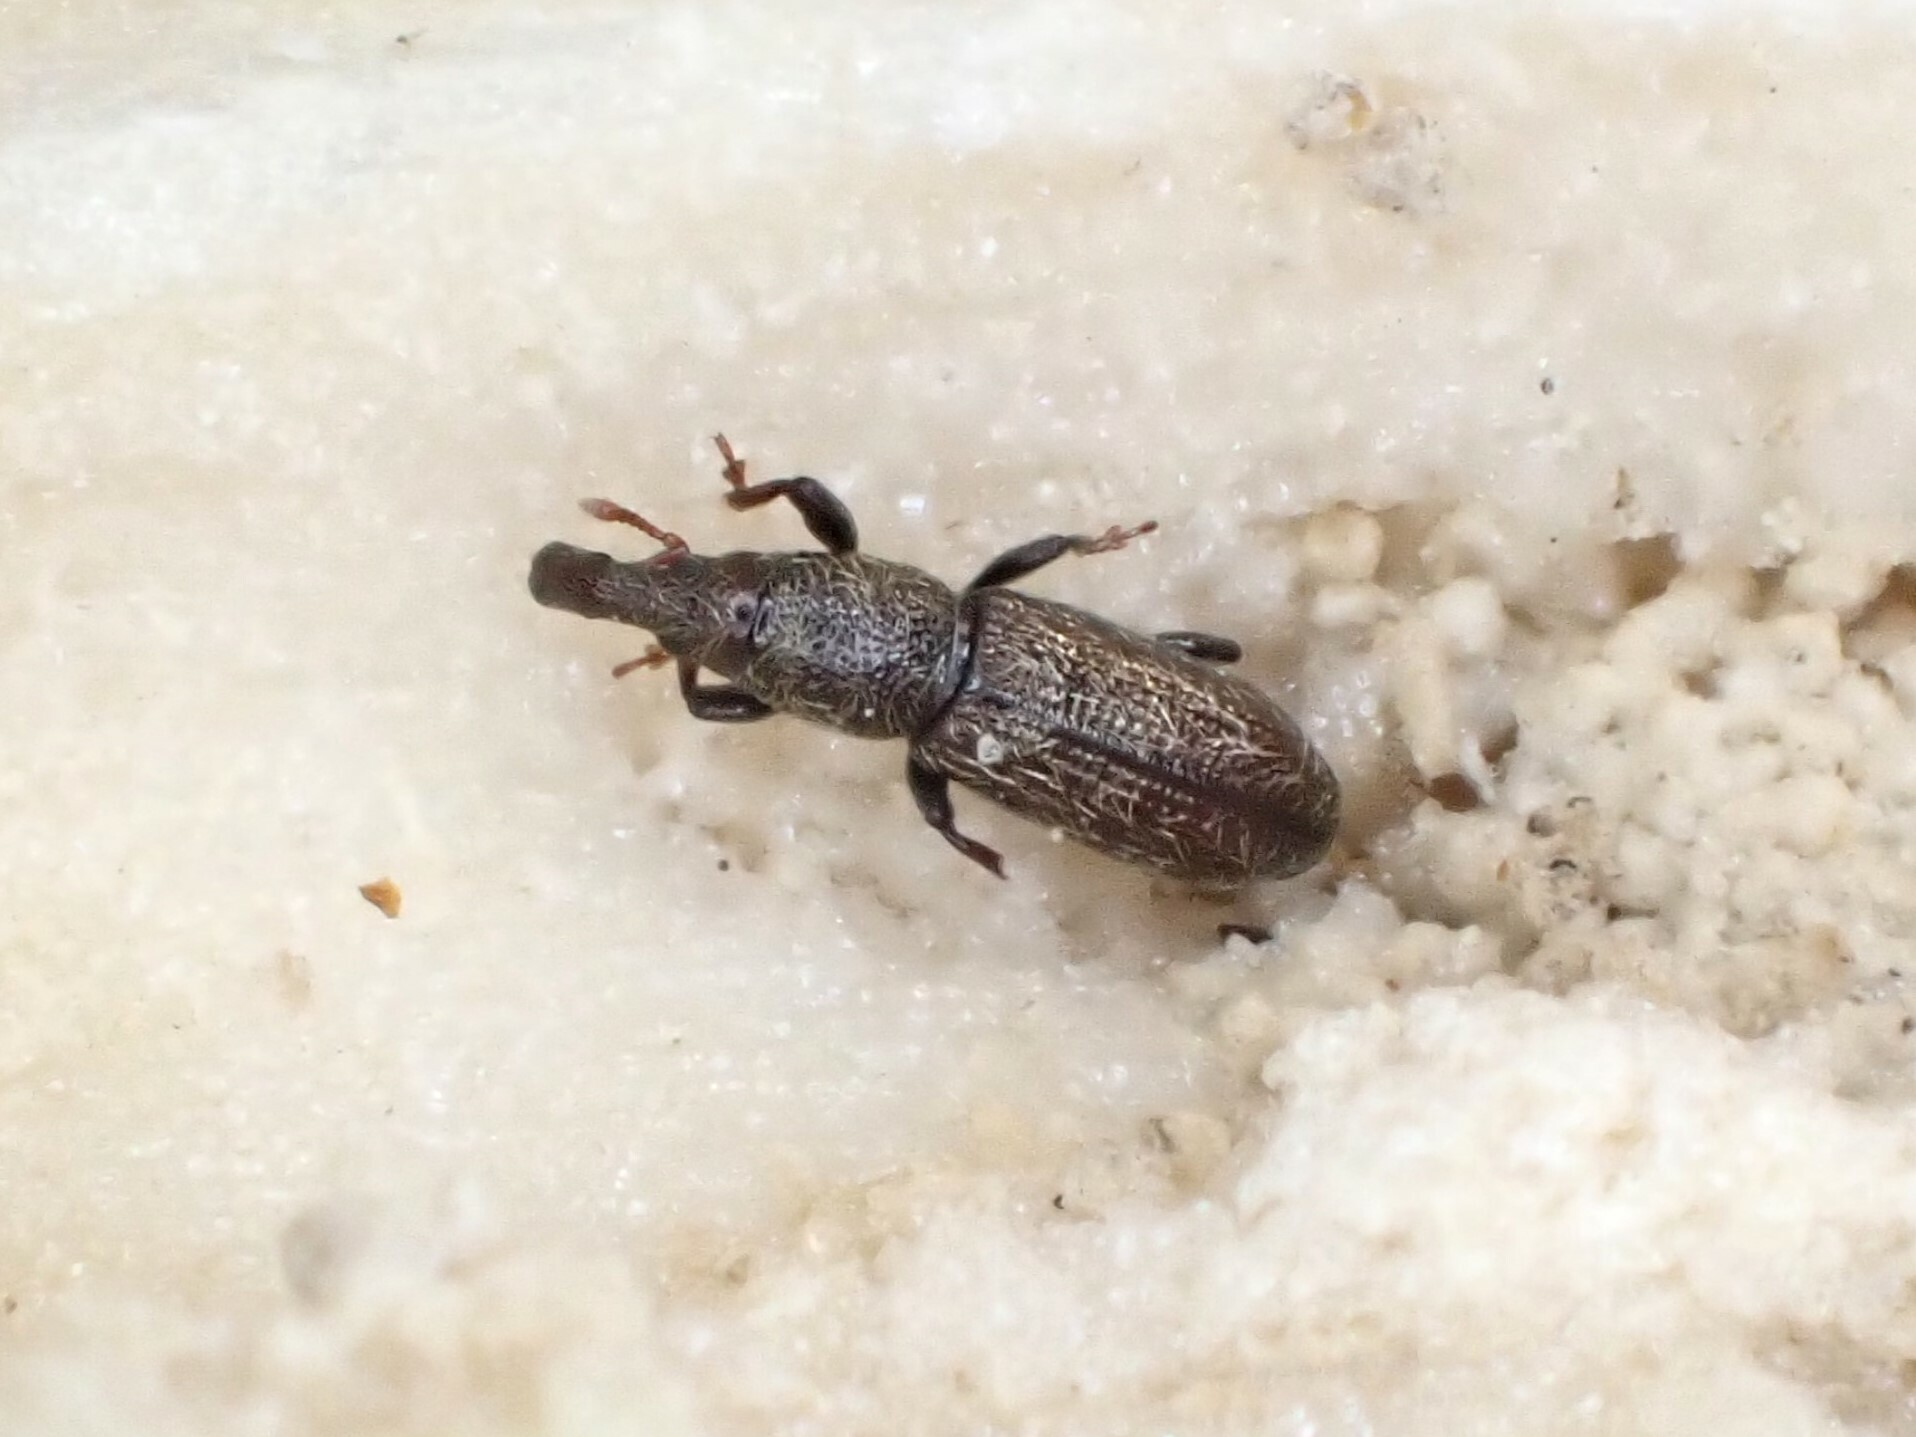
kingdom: Animalia
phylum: Arthropoda
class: Insecta
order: Coleoptera
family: Curculionidae
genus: Sericotrogus
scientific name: Sericotrogus subaenescens
